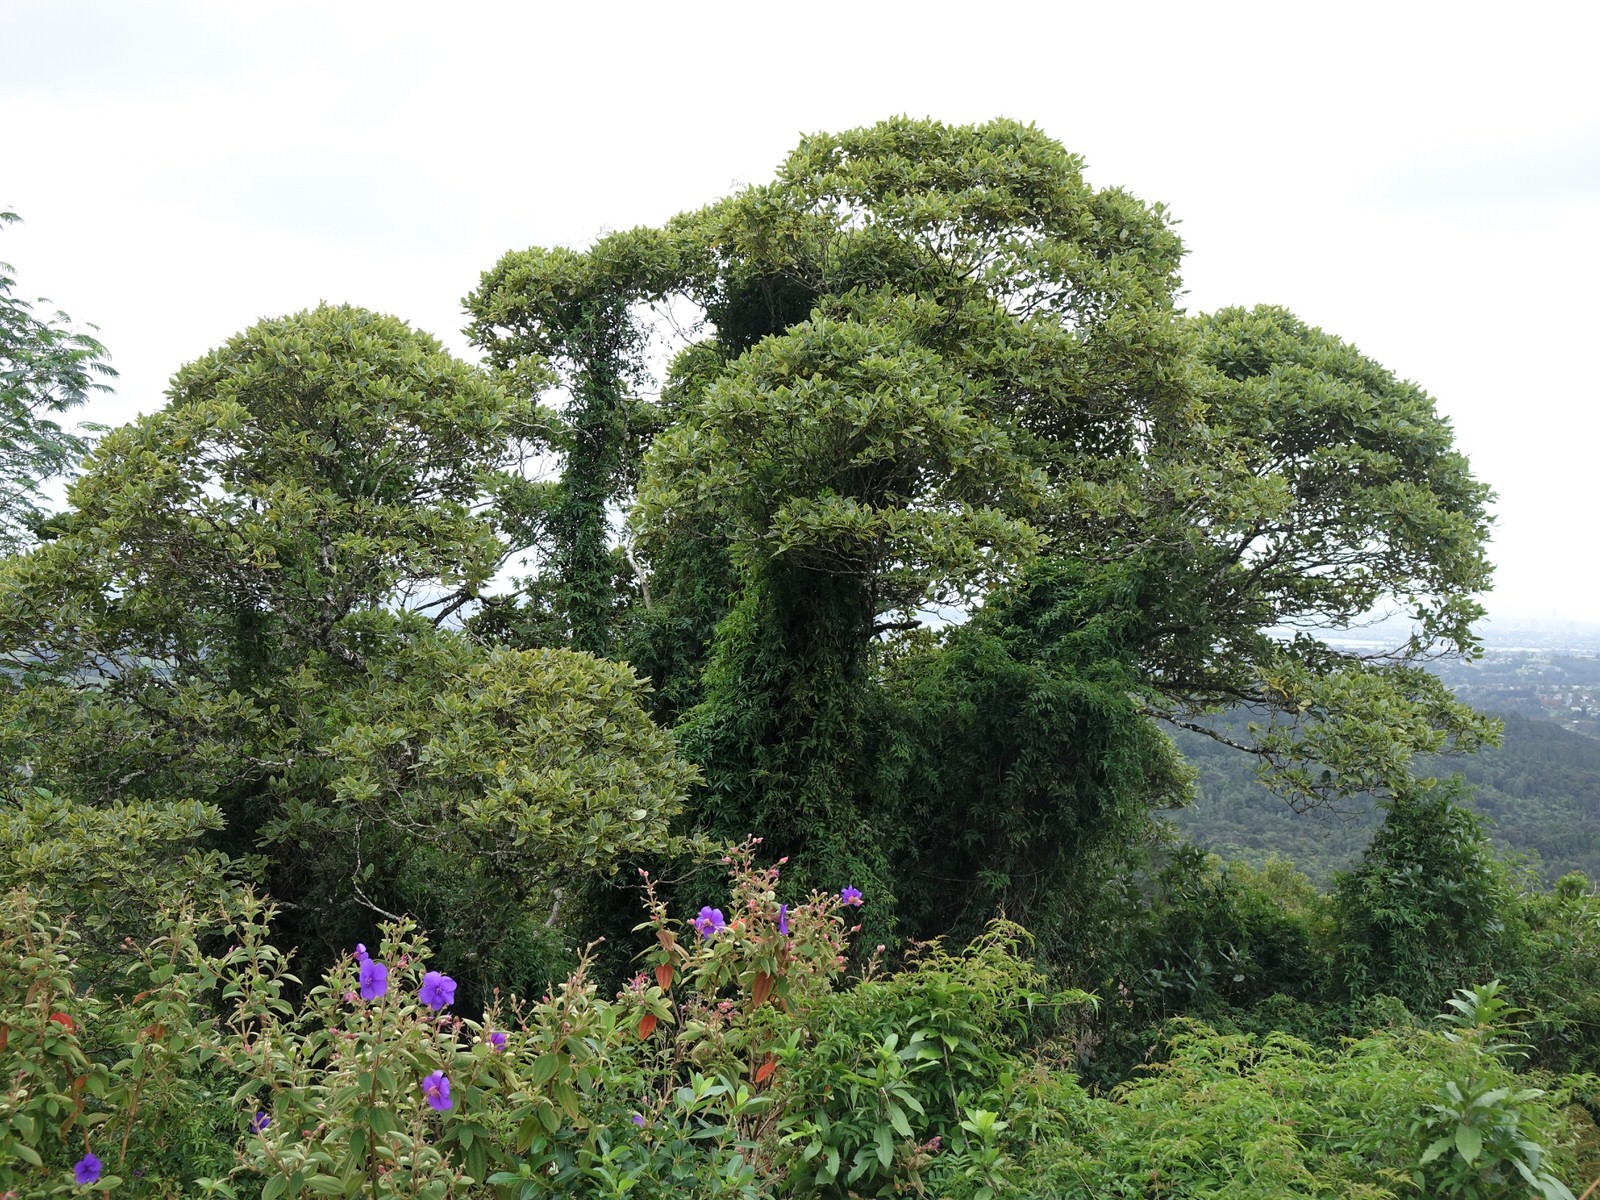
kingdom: Plantae
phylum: Tracheophyta
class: Magnoliopsida
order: Lamiales
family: Oleaceae
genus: Jasminum
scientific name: Jasminum polyanthum
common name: Pink jasmine
